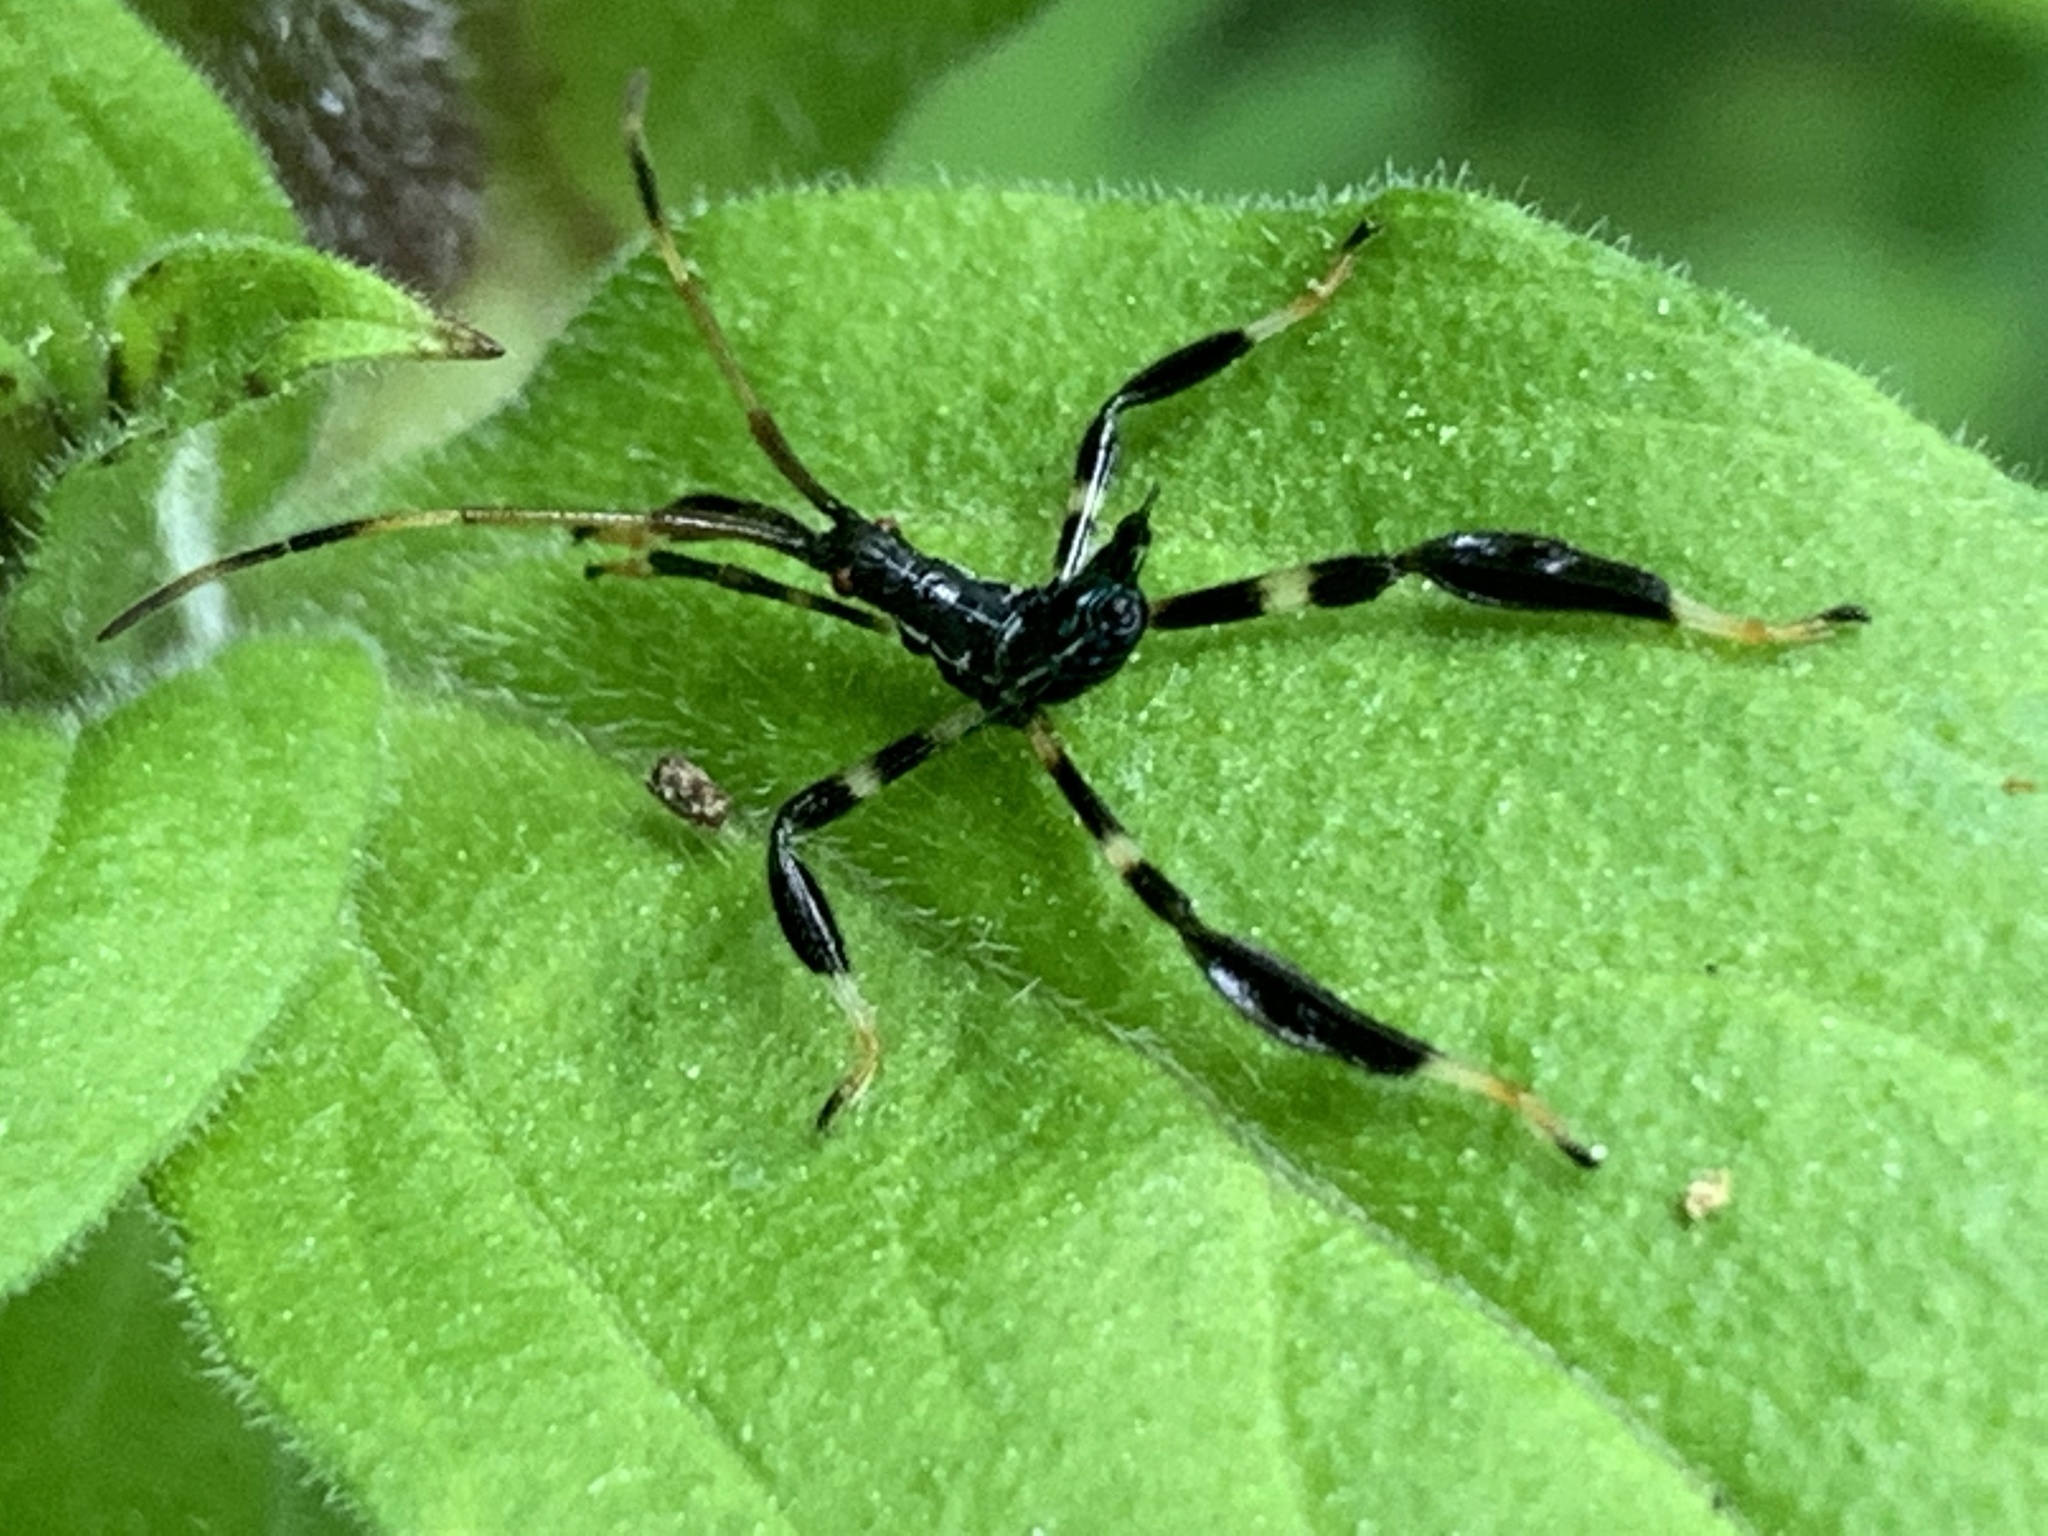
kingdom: Animalia
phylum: Arthropoda
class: Insecta
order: Hemiptera
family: Coreidae
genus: Acanthocephala
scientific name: Acanthocephala terminalis
